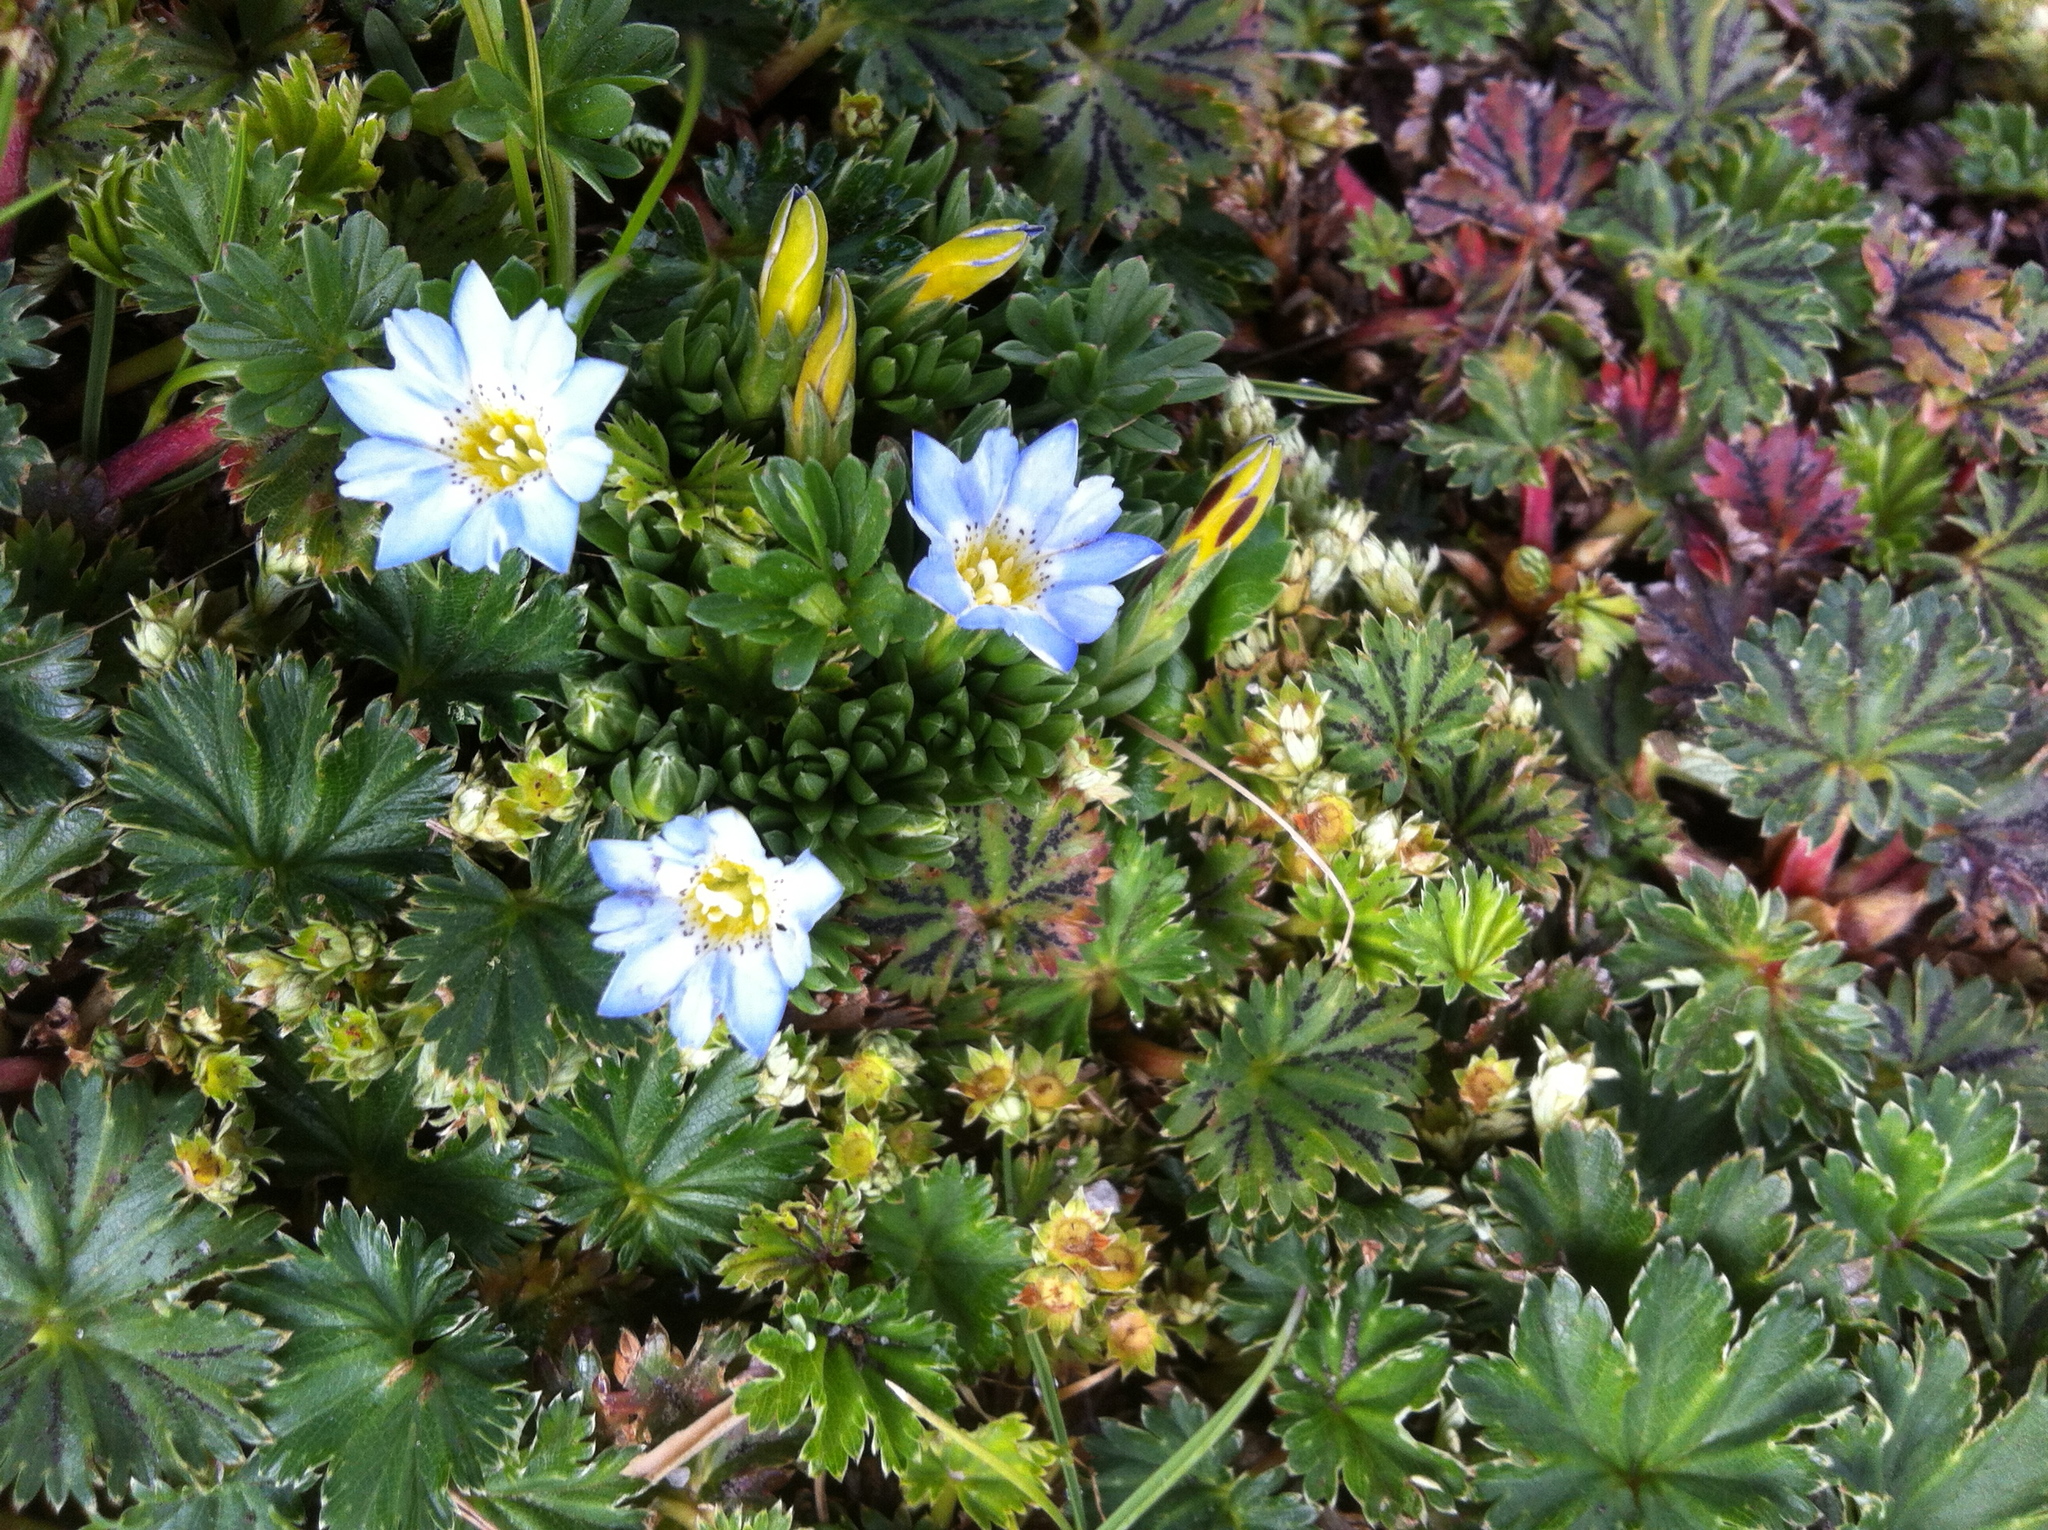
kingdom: Plantae
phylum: Tracheophyta
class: Magnoliopsida
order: Gentianales
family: Gentianaceae
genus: Gentiana
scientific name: Gentiana sedifolia
